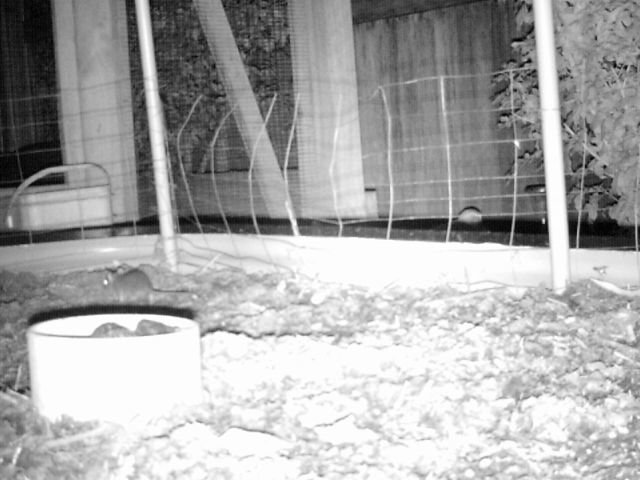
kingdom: Animalia
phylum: Chordata
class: Mammalia
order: Rodentia
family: Muridae
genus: Mus
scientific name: Mus musculus
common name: House mouse
